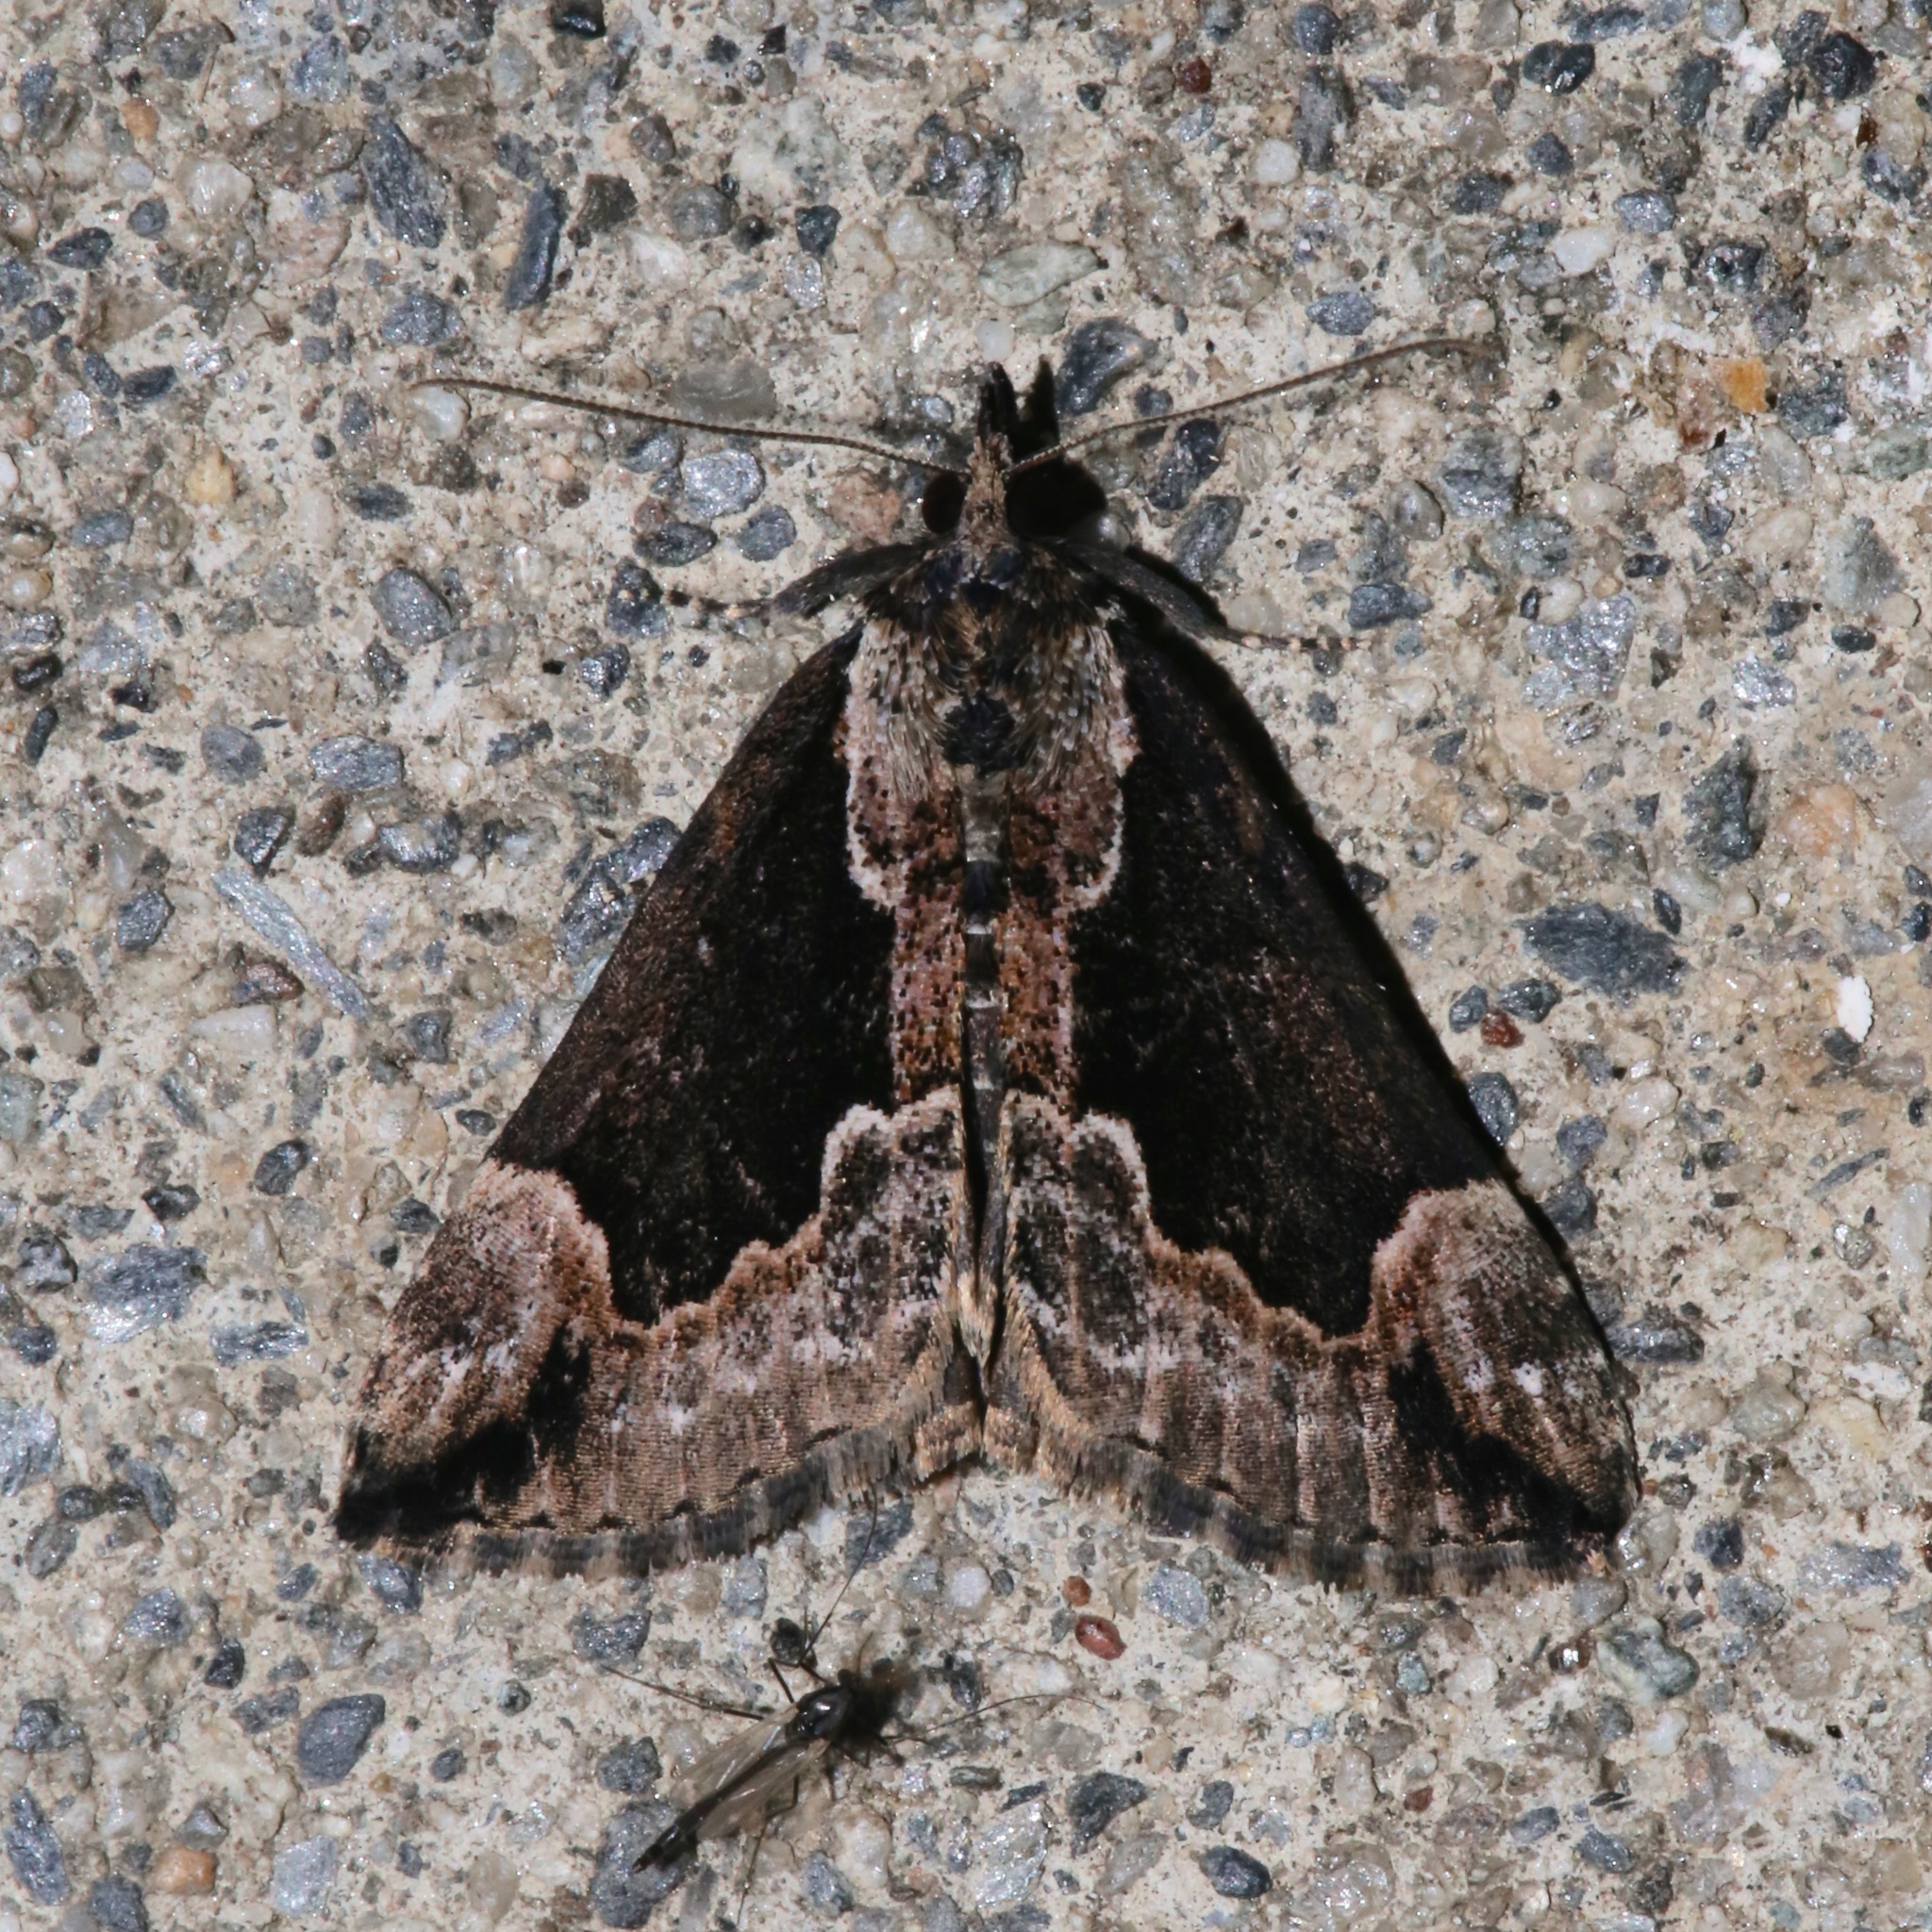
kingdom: Animalia
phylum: Arthropoda
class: Insecta
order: Lepidoptera
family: Erebidae
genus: Hypena
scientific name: Hypena baltimoralis
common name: Baltimore snout
